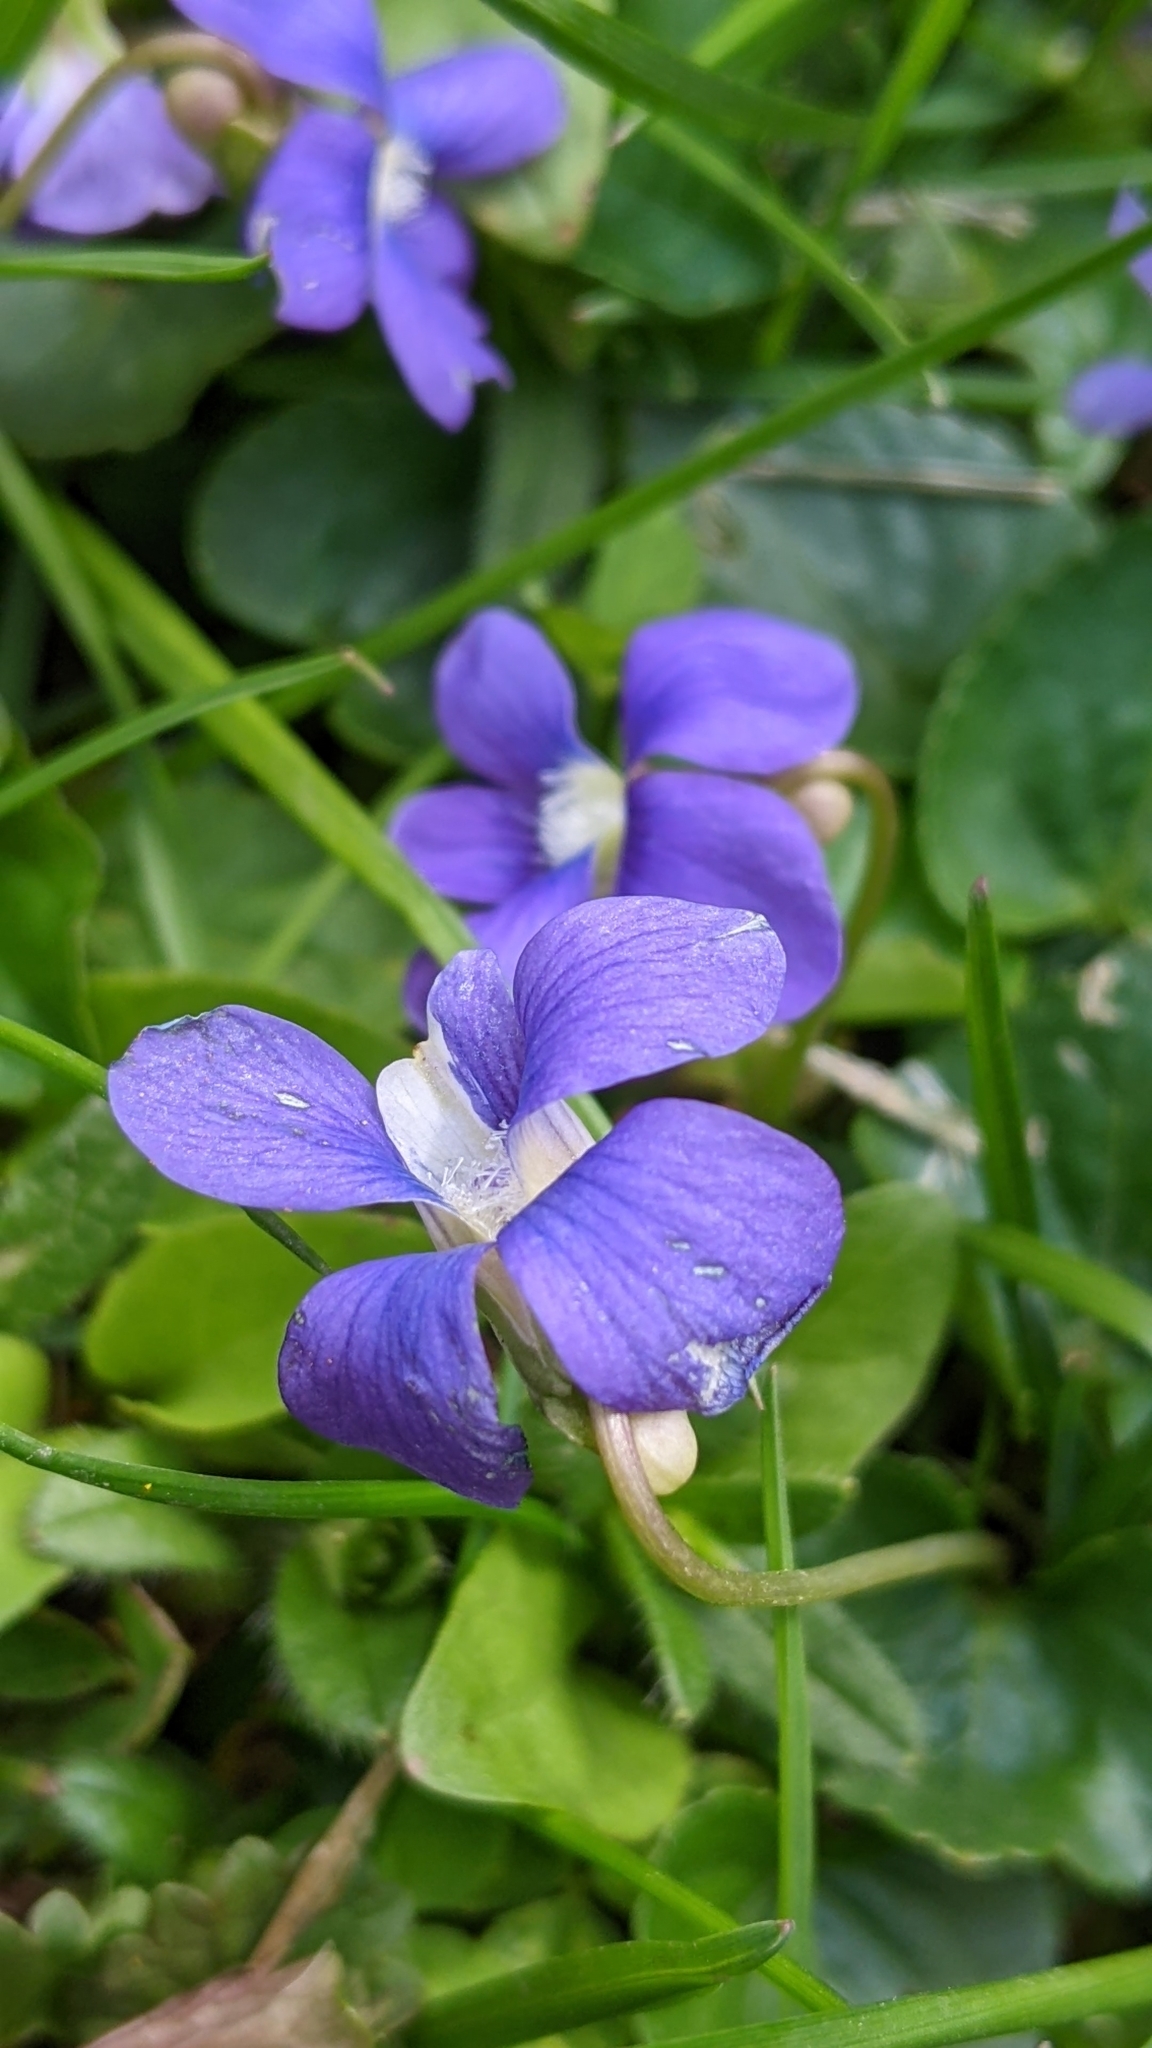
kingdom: Plantae
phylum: Tracheophyta
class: Magnoliopsida
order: Malpighiales
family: Violaceae
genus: Viola
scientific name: Viola sororia
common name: Dooryard violet
